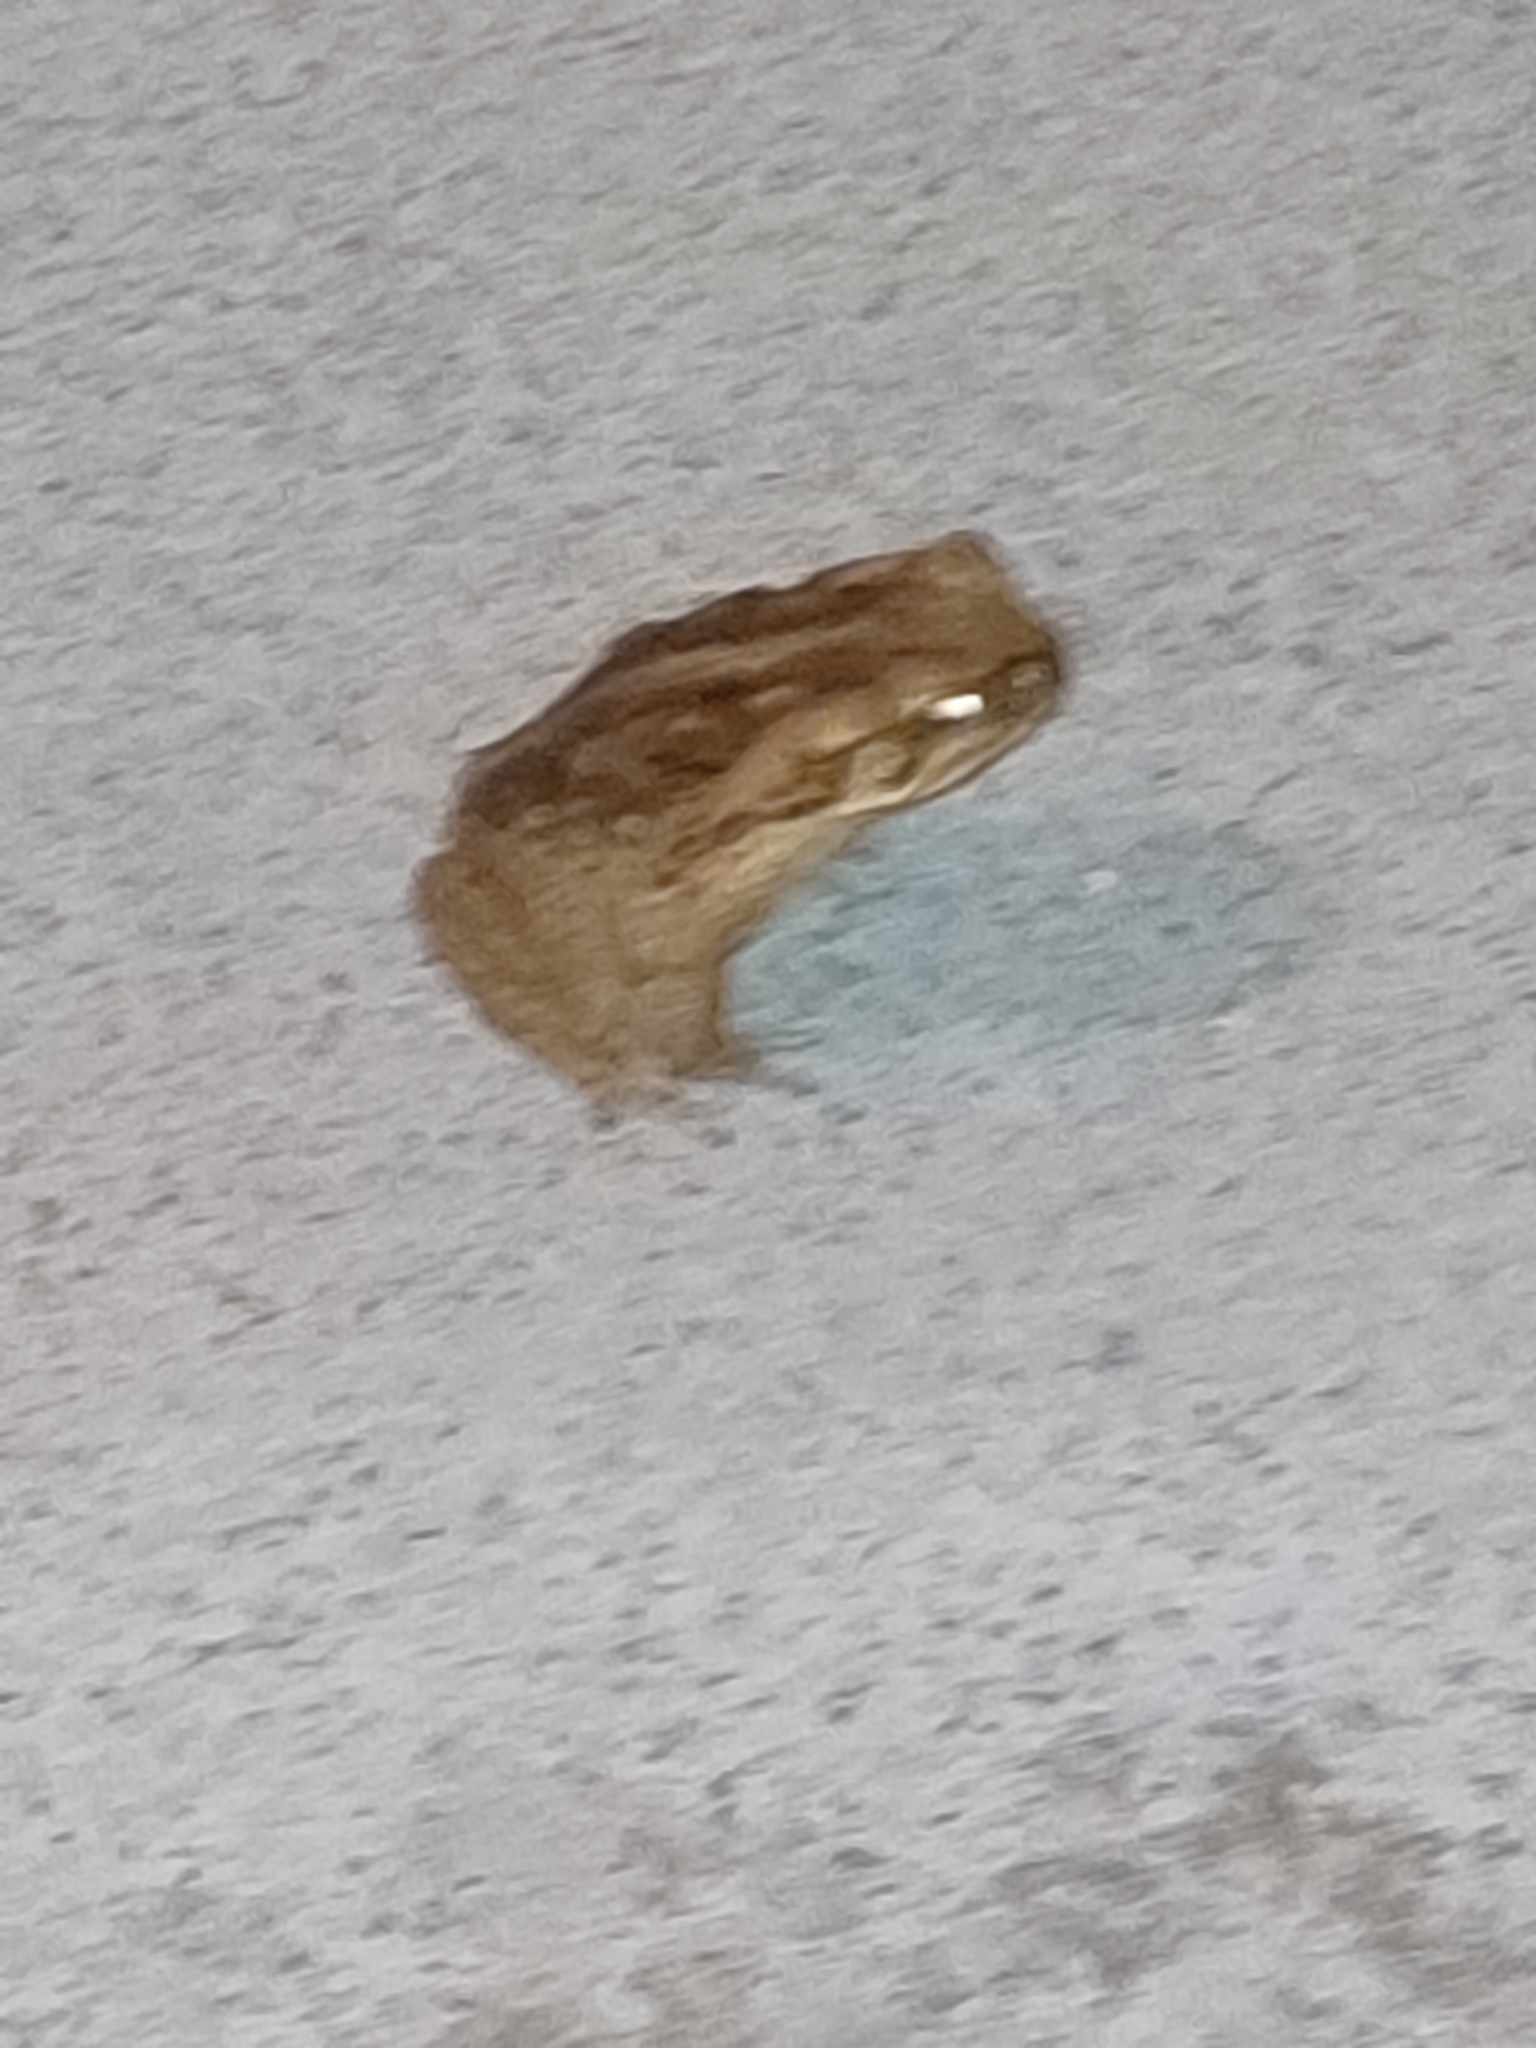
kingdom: Animalia
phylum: Chordata
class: Amphibia
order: Anura
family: Bufonidae
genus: Rhinella
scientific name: Rhinella marina
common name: Cane toad
